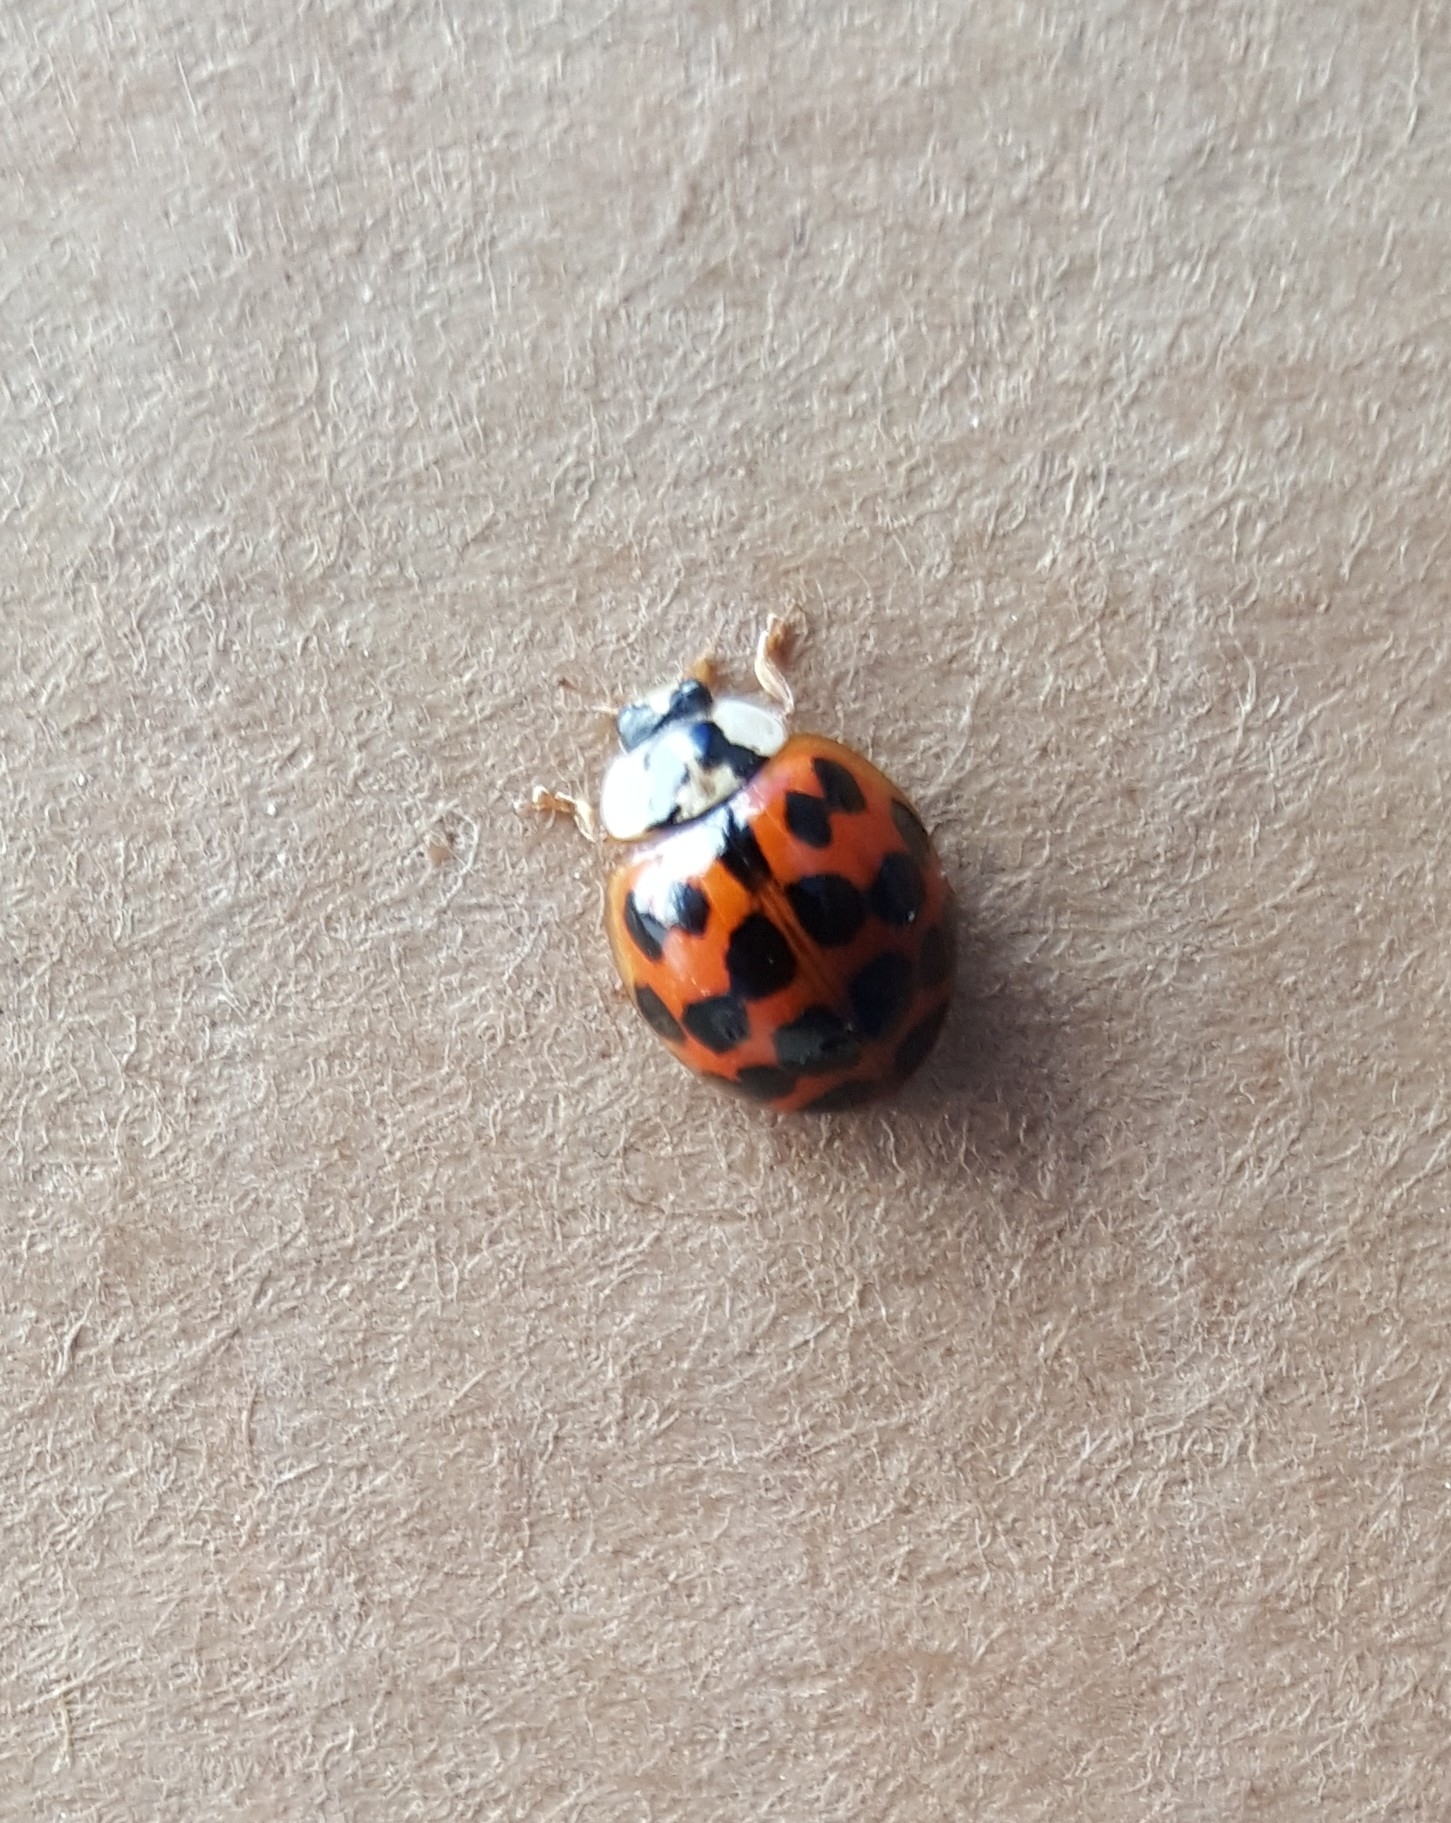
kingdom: Animalia
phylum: Arthropoda
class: Insecta
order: Coleoptera
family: Coccinellidae
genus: Harmonia
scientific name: Harmonia axyridis
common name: Harlequin ladybird
